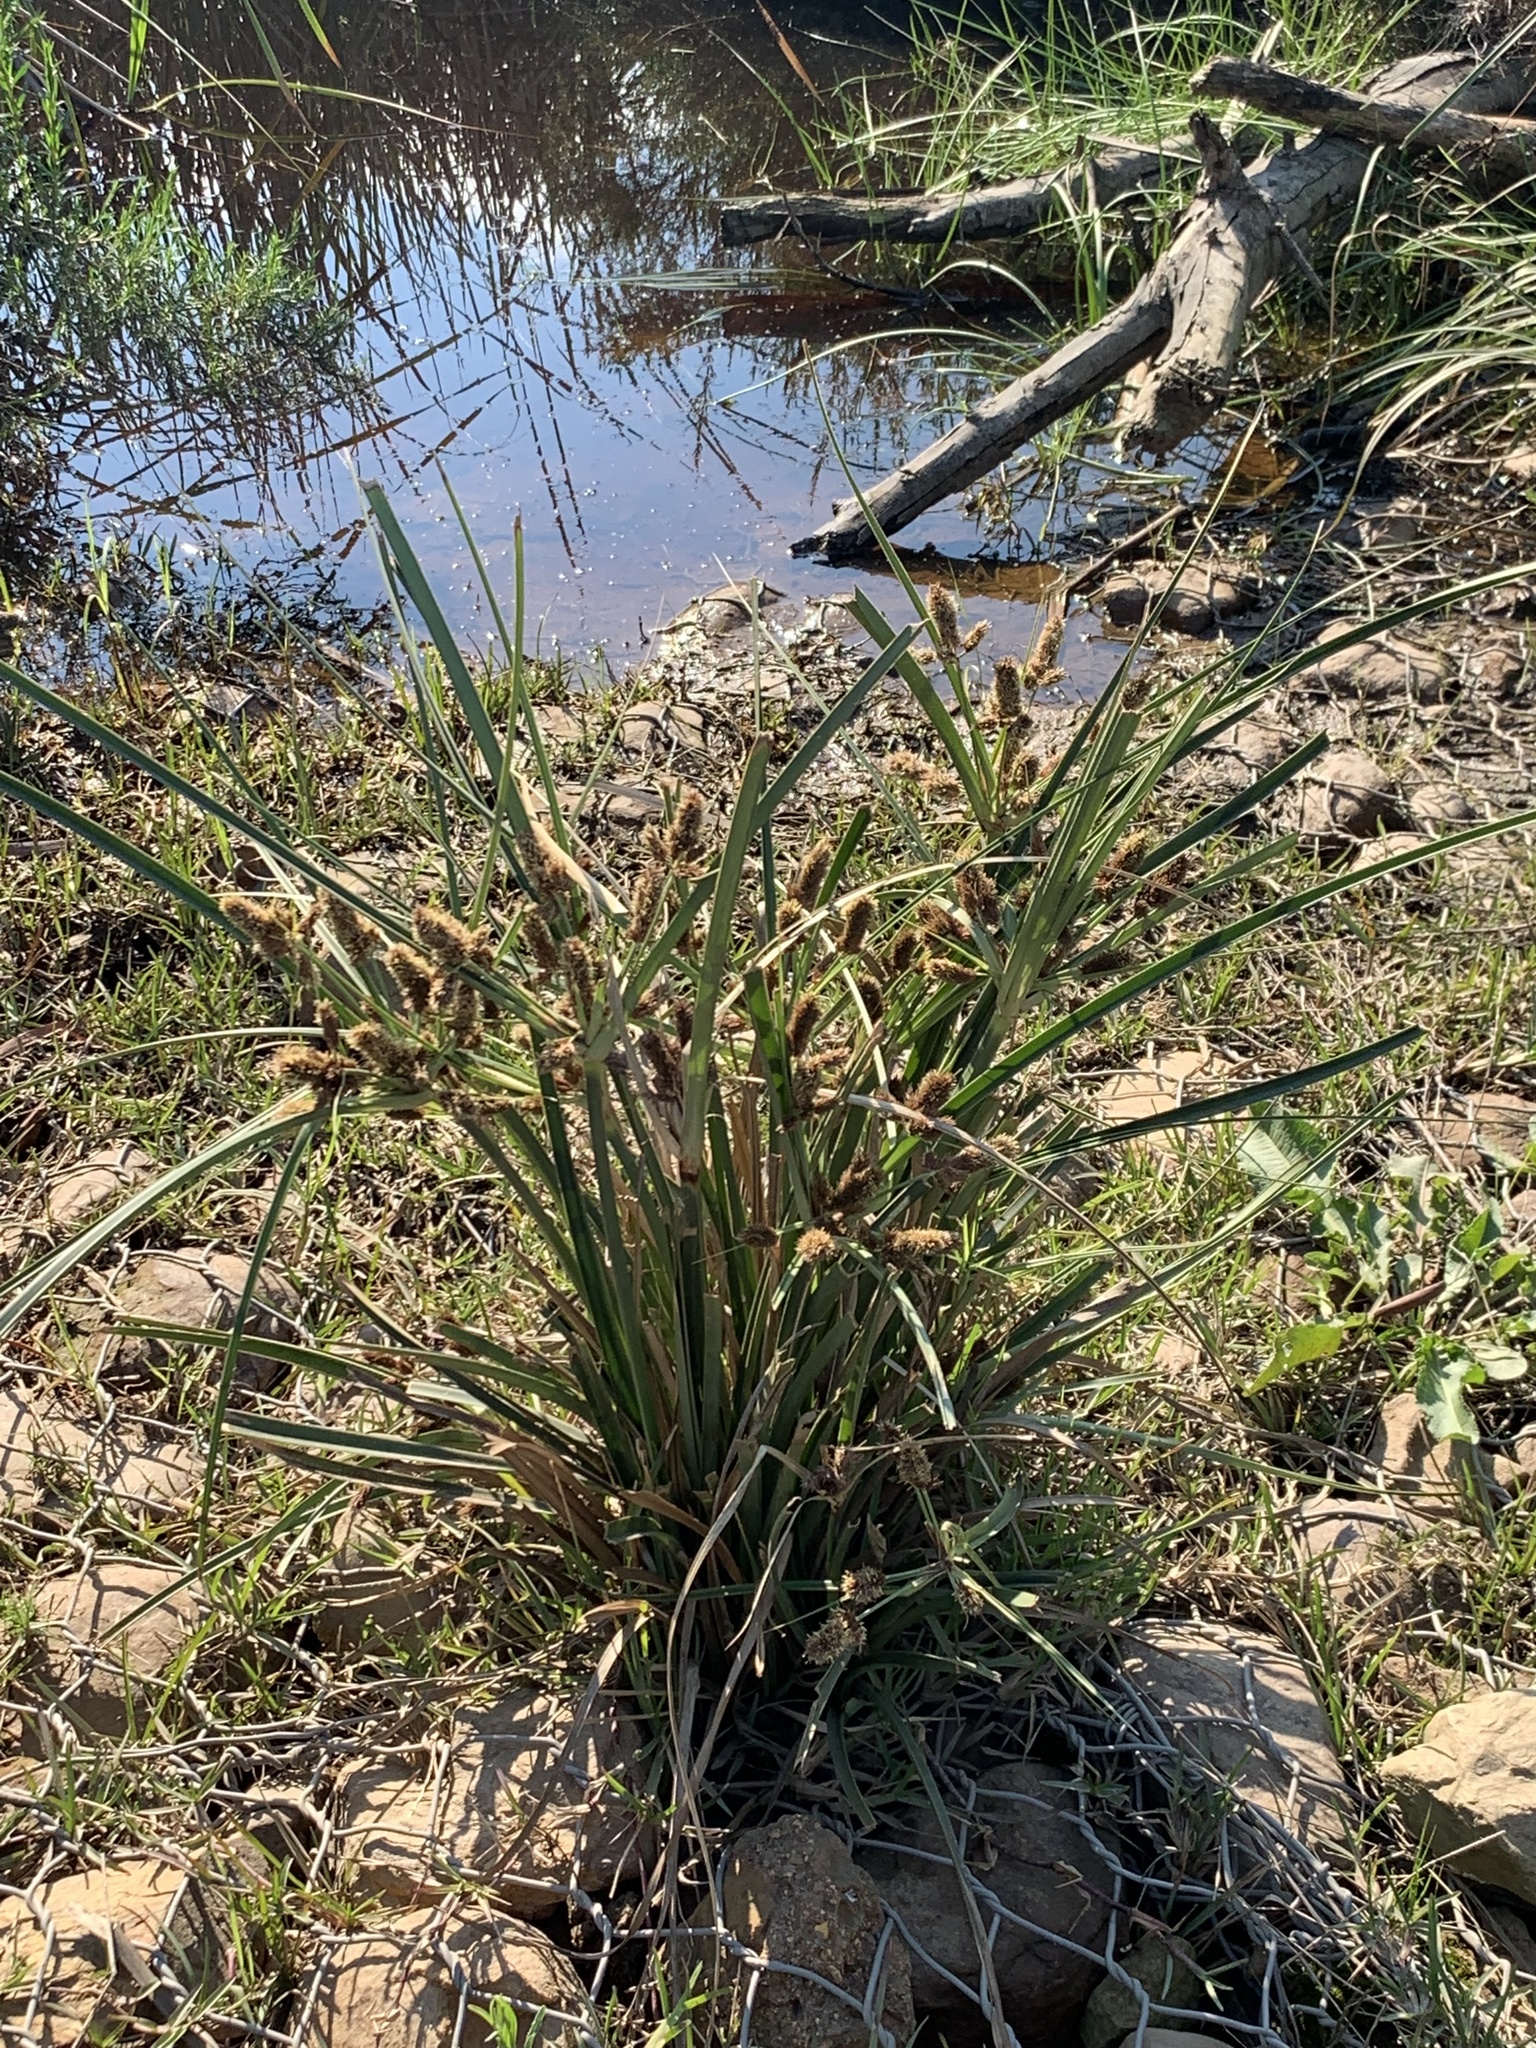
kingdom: Plantae
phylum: Tracheophyta
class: Liliopsida
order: Poales
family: Cyperaceae
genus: Cyperus
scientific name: Cyperus thunbergii
